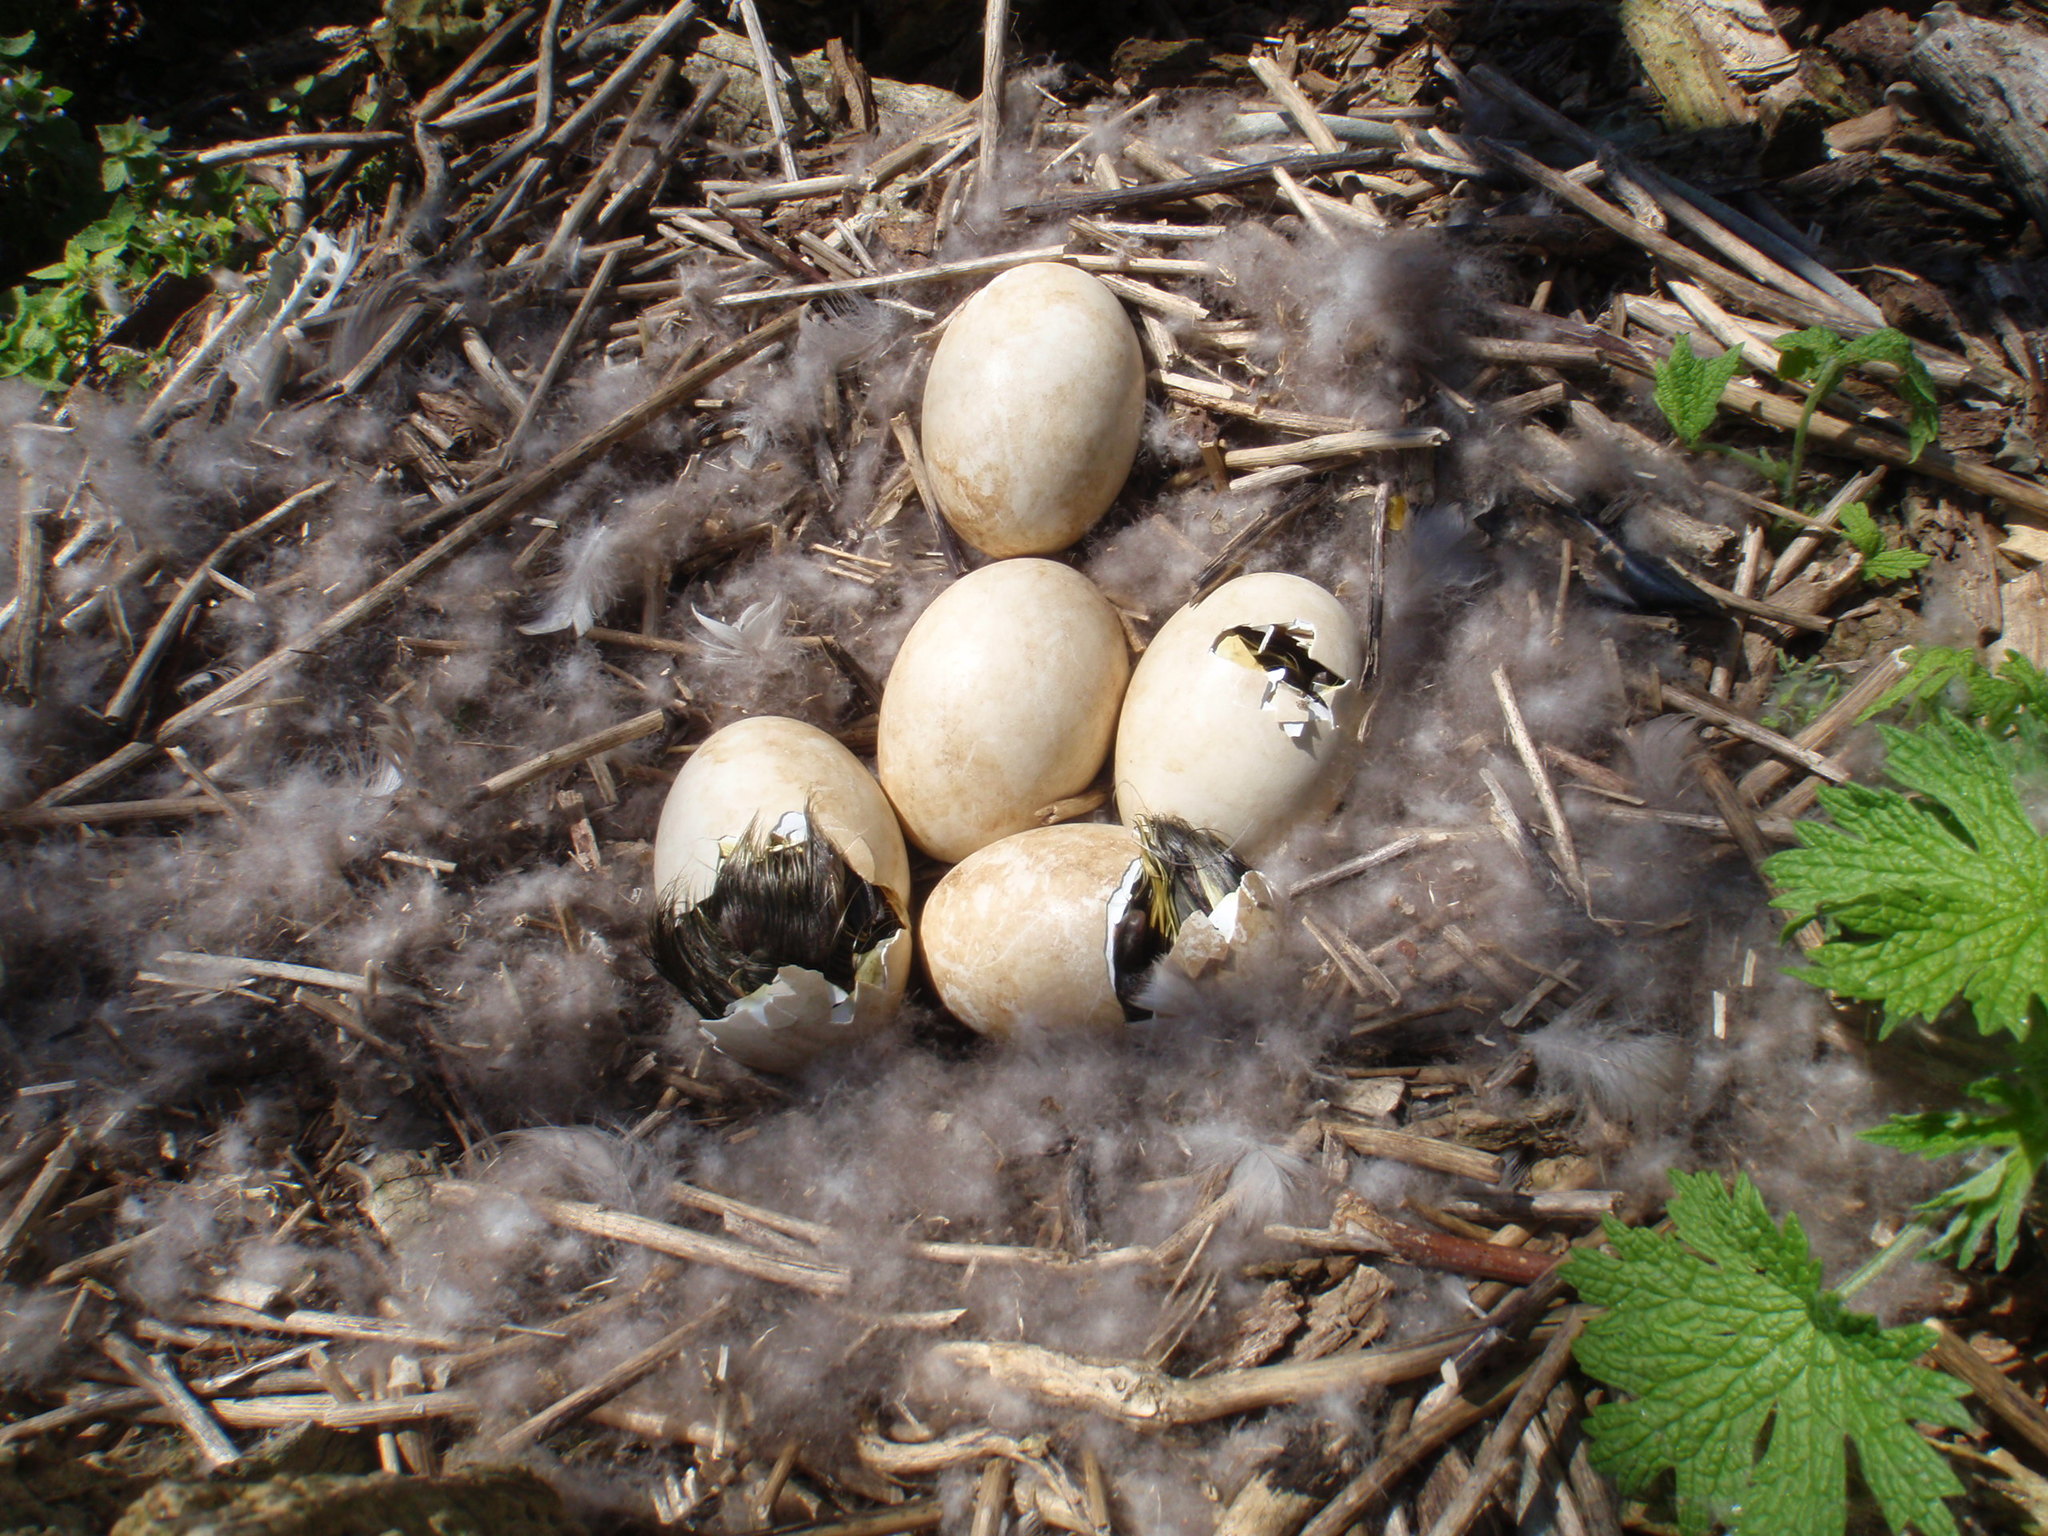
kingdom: Animalia
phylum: Chordata
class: Aves
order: Anseriformes
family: Anatidae
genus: Branta
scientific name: Branta canadensis
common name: Canada goose
